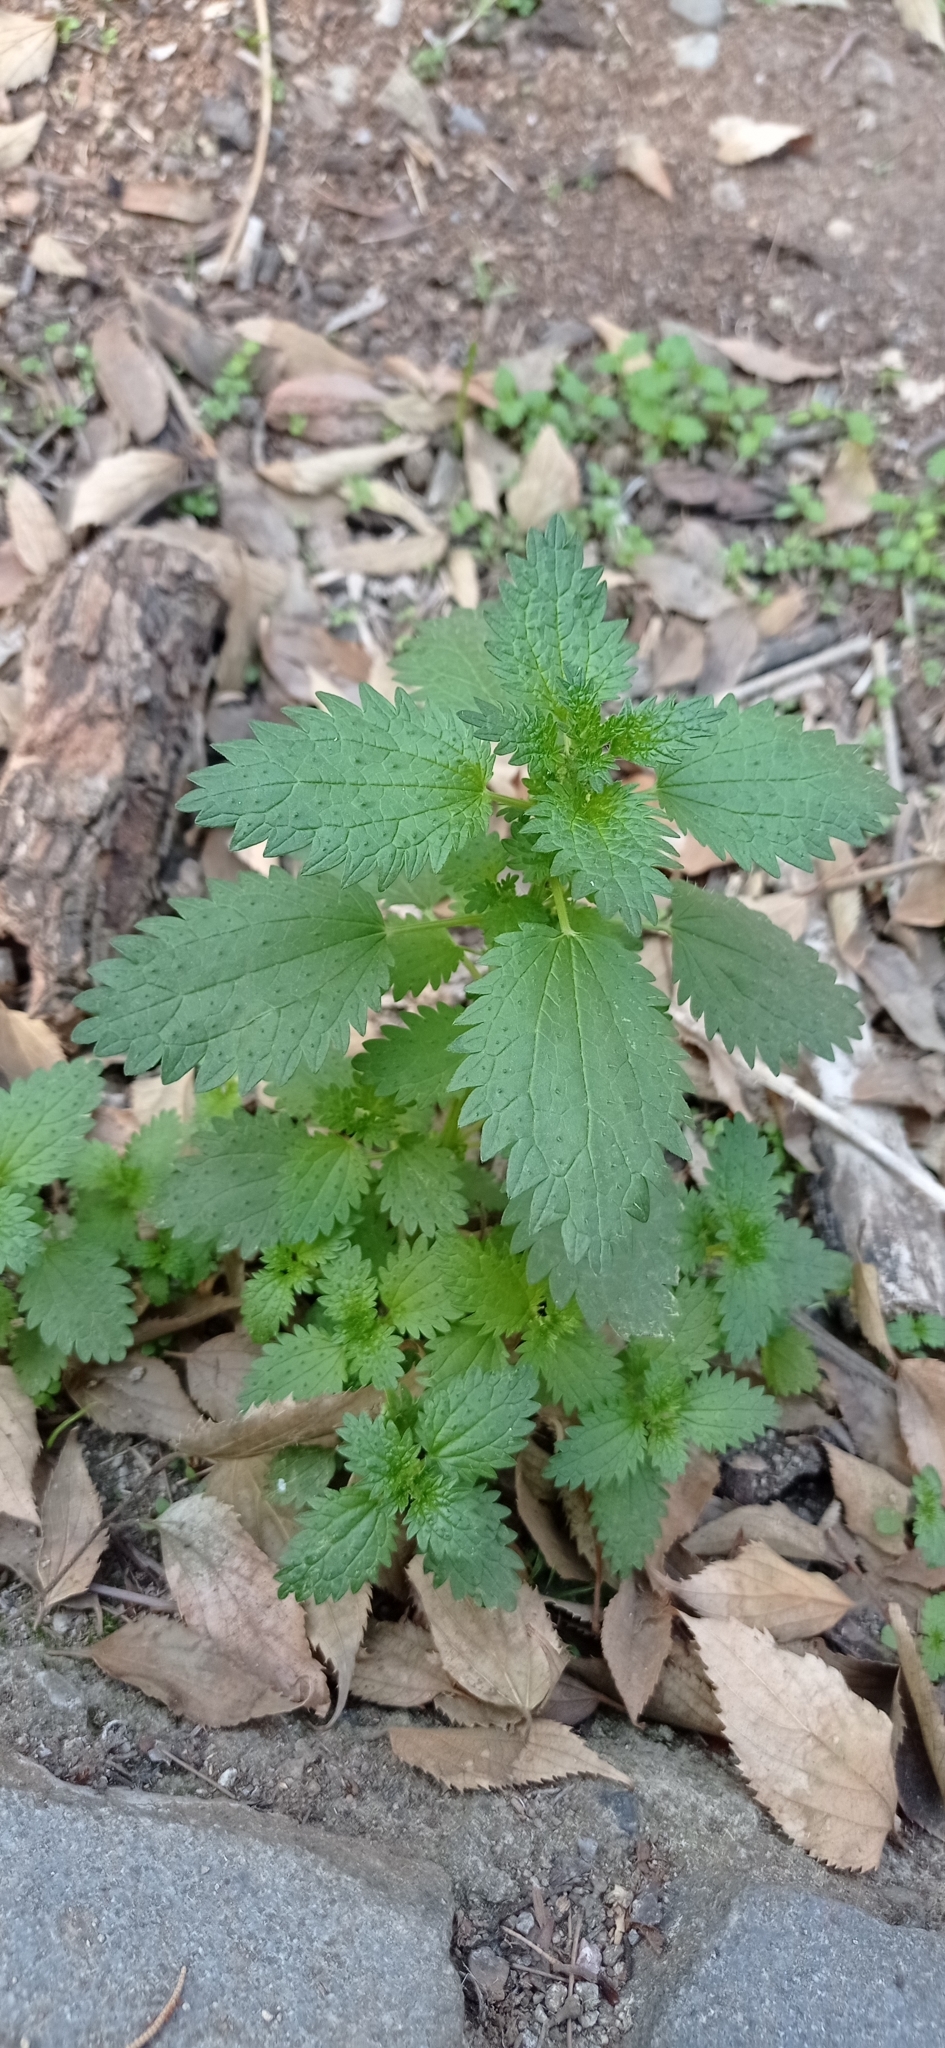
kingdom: Plantae
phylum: Tracheophyta
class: Magnoliopsida
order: Rosales
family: Urticaceae
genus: Urtica
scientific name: Urtica urens
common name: Dwarf nettle
